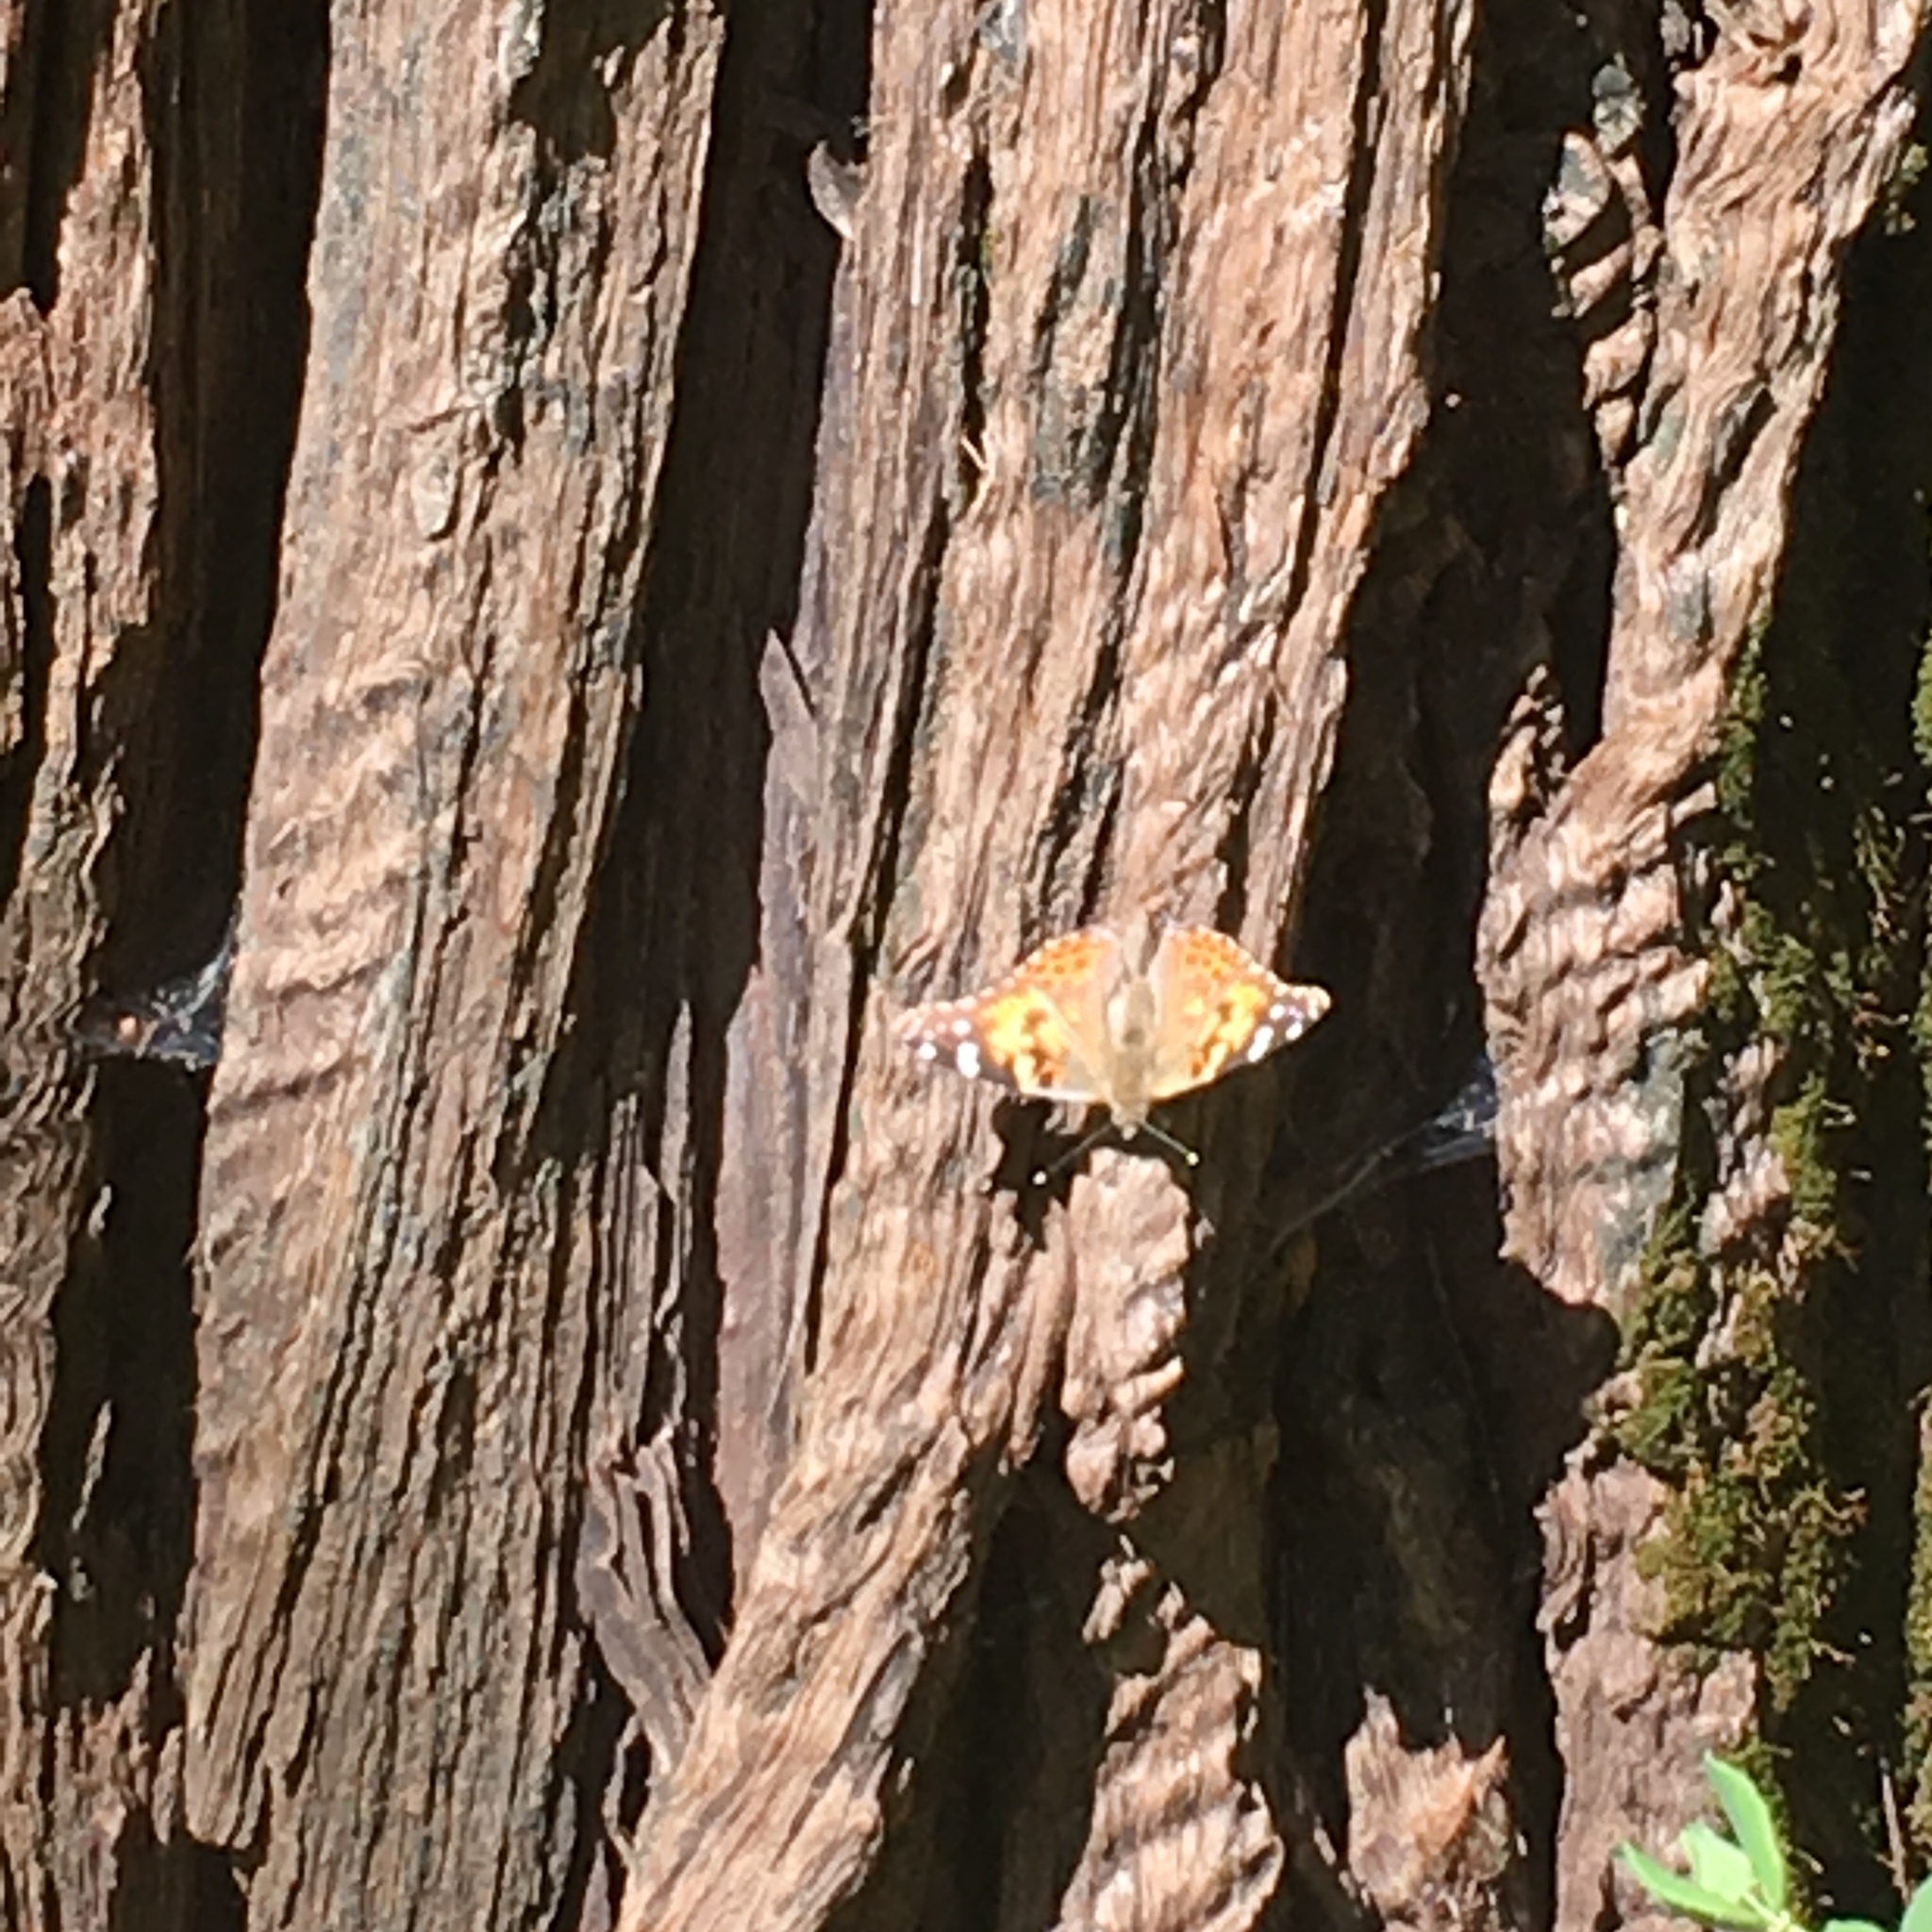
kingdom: Animalia
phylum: Arthropoda
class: Insecta
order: Lepidoptera
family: Nymphalidae
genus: Vanessa
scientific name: Vanessa cardui
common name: Painted lady
